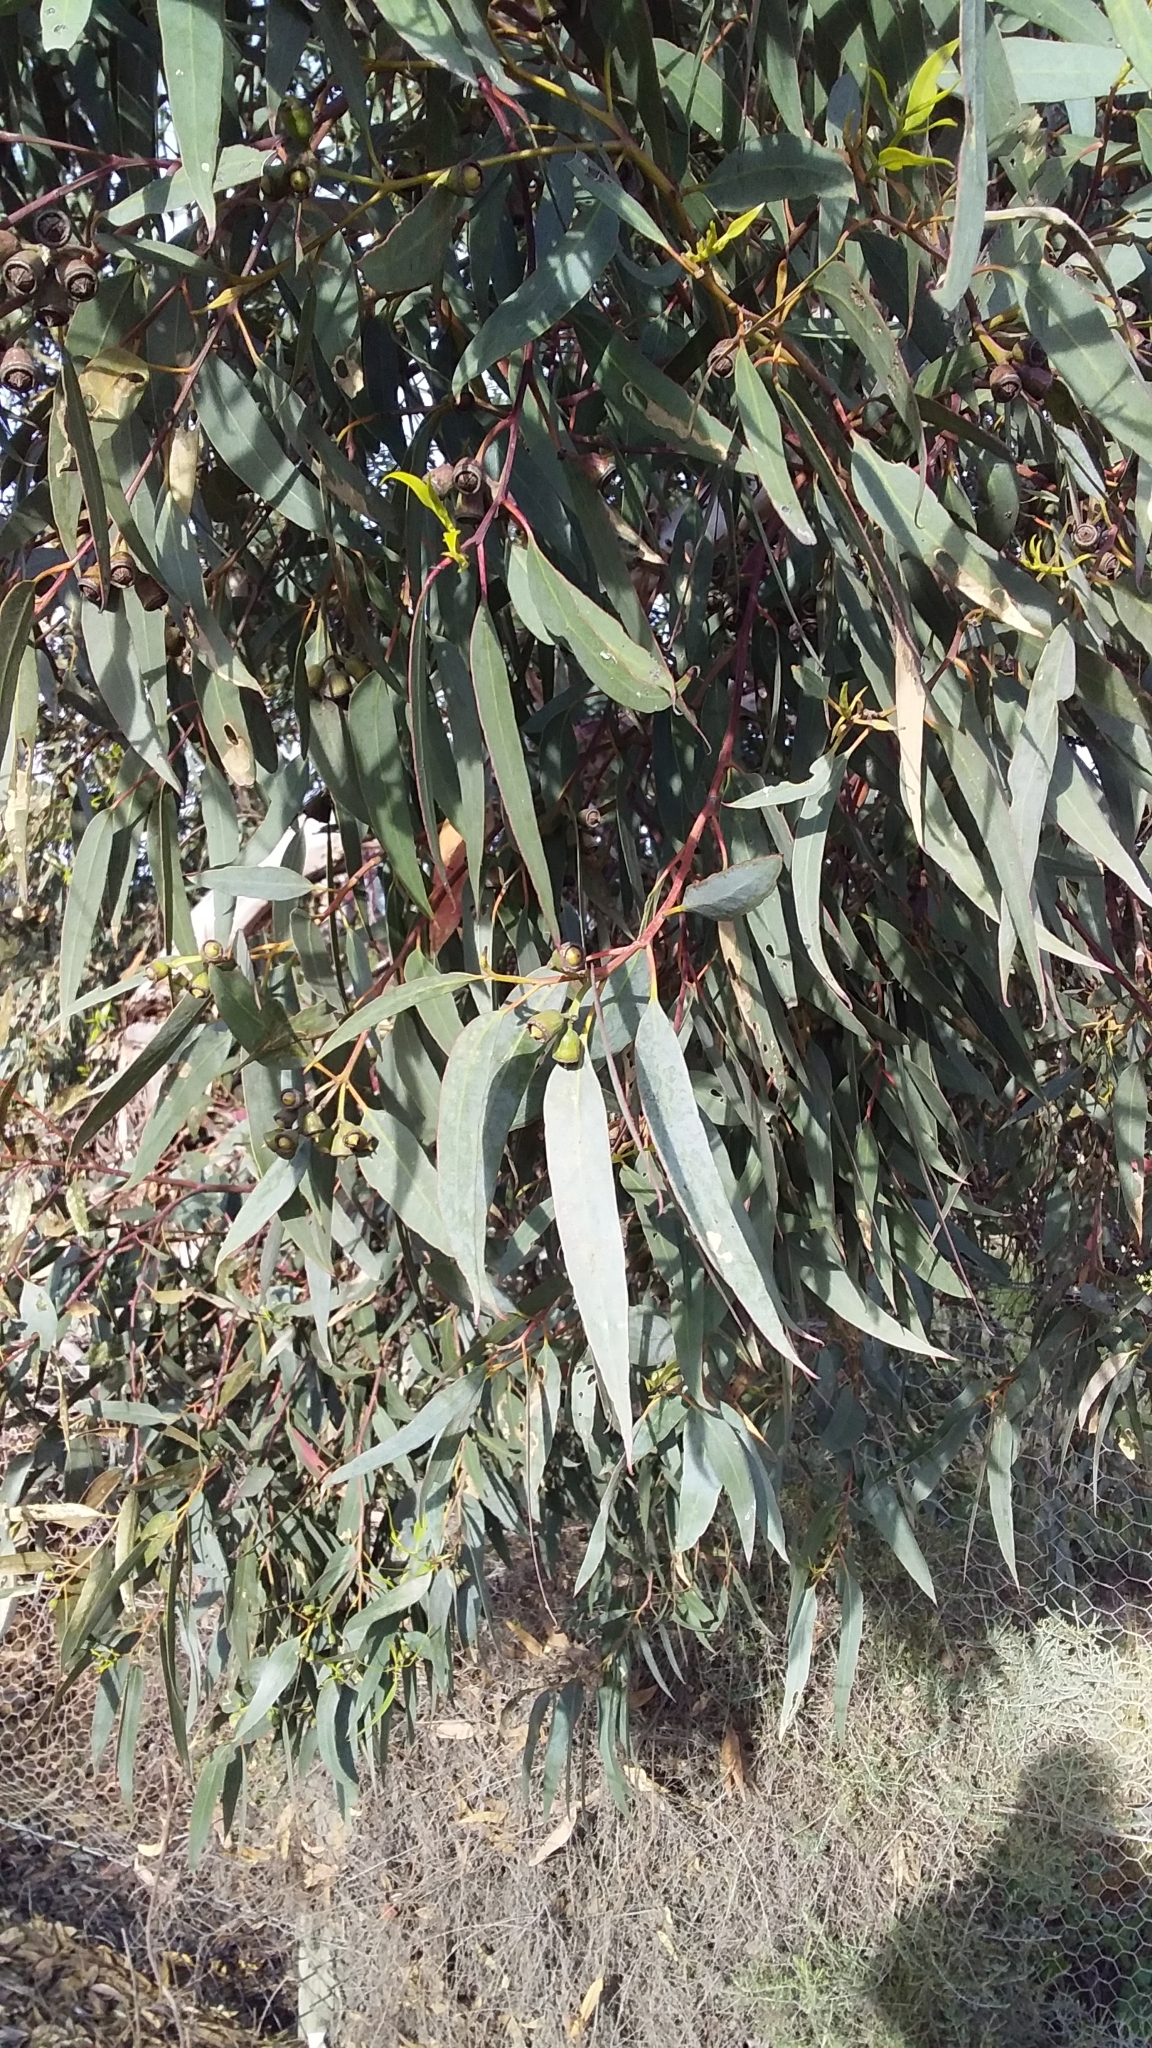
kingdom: Plantae
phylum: Tracheophyta
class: Magnoliopsida
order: Myrtales
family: Myrtaceae
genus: Eucalyptus
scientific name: Eucalyptus occidentalis
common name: Swamp yate
